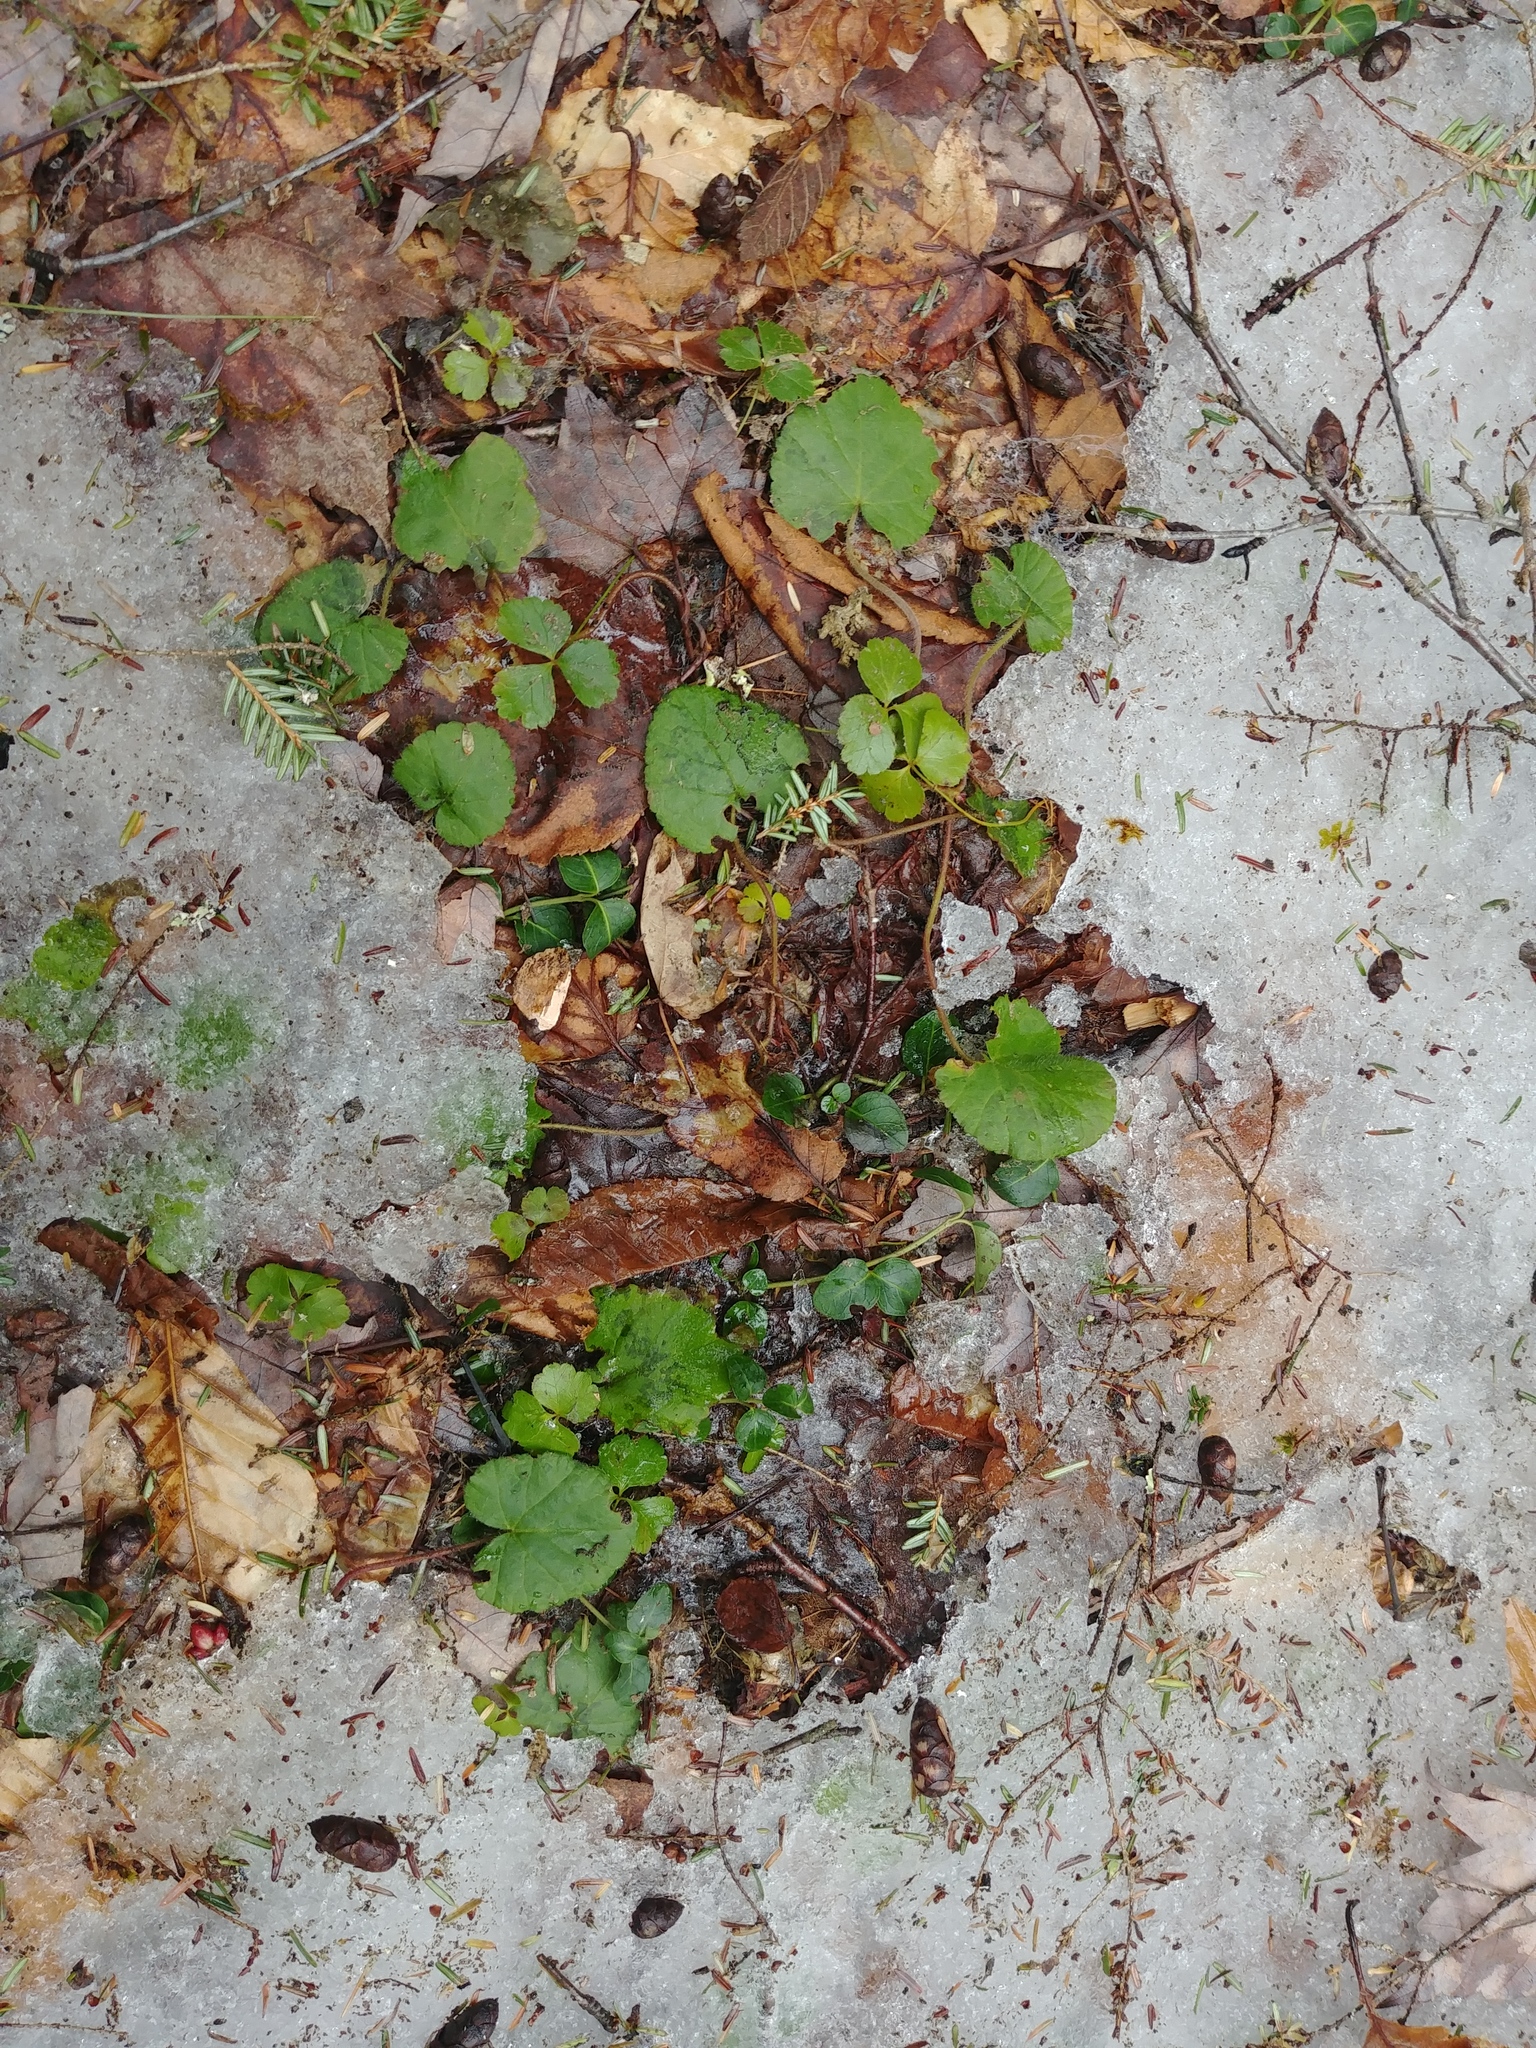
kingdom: Plantae
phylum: Tracheophyta
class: Magnoliopsida
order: Rosales
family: Rosaceae
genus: Dalibarda
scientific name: Dalibarda repens
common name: Dewdrop
